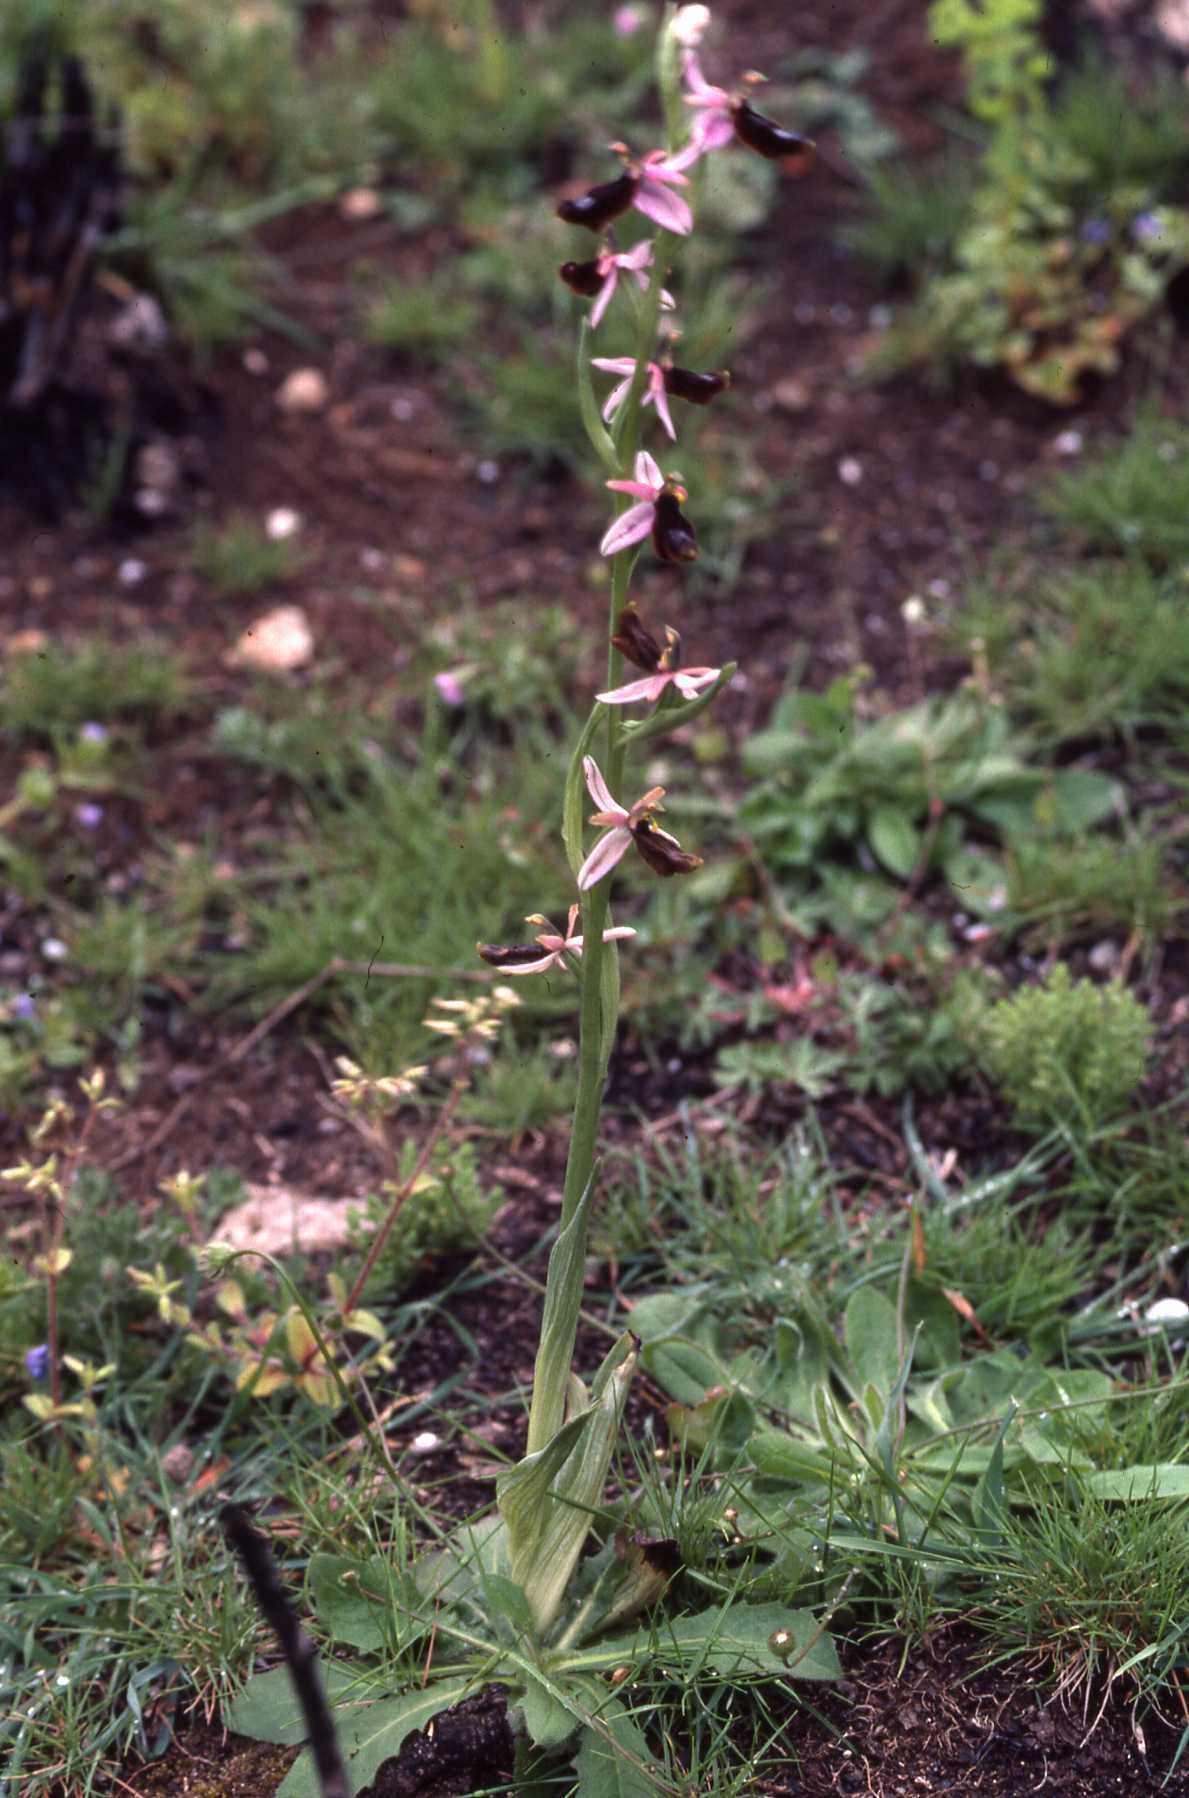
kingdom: Plantae
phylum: Tracheophyta
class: Liliopsida
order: Asparagales
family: Orchidaceae
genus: Ophrys
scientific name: Ophrys flavicans
